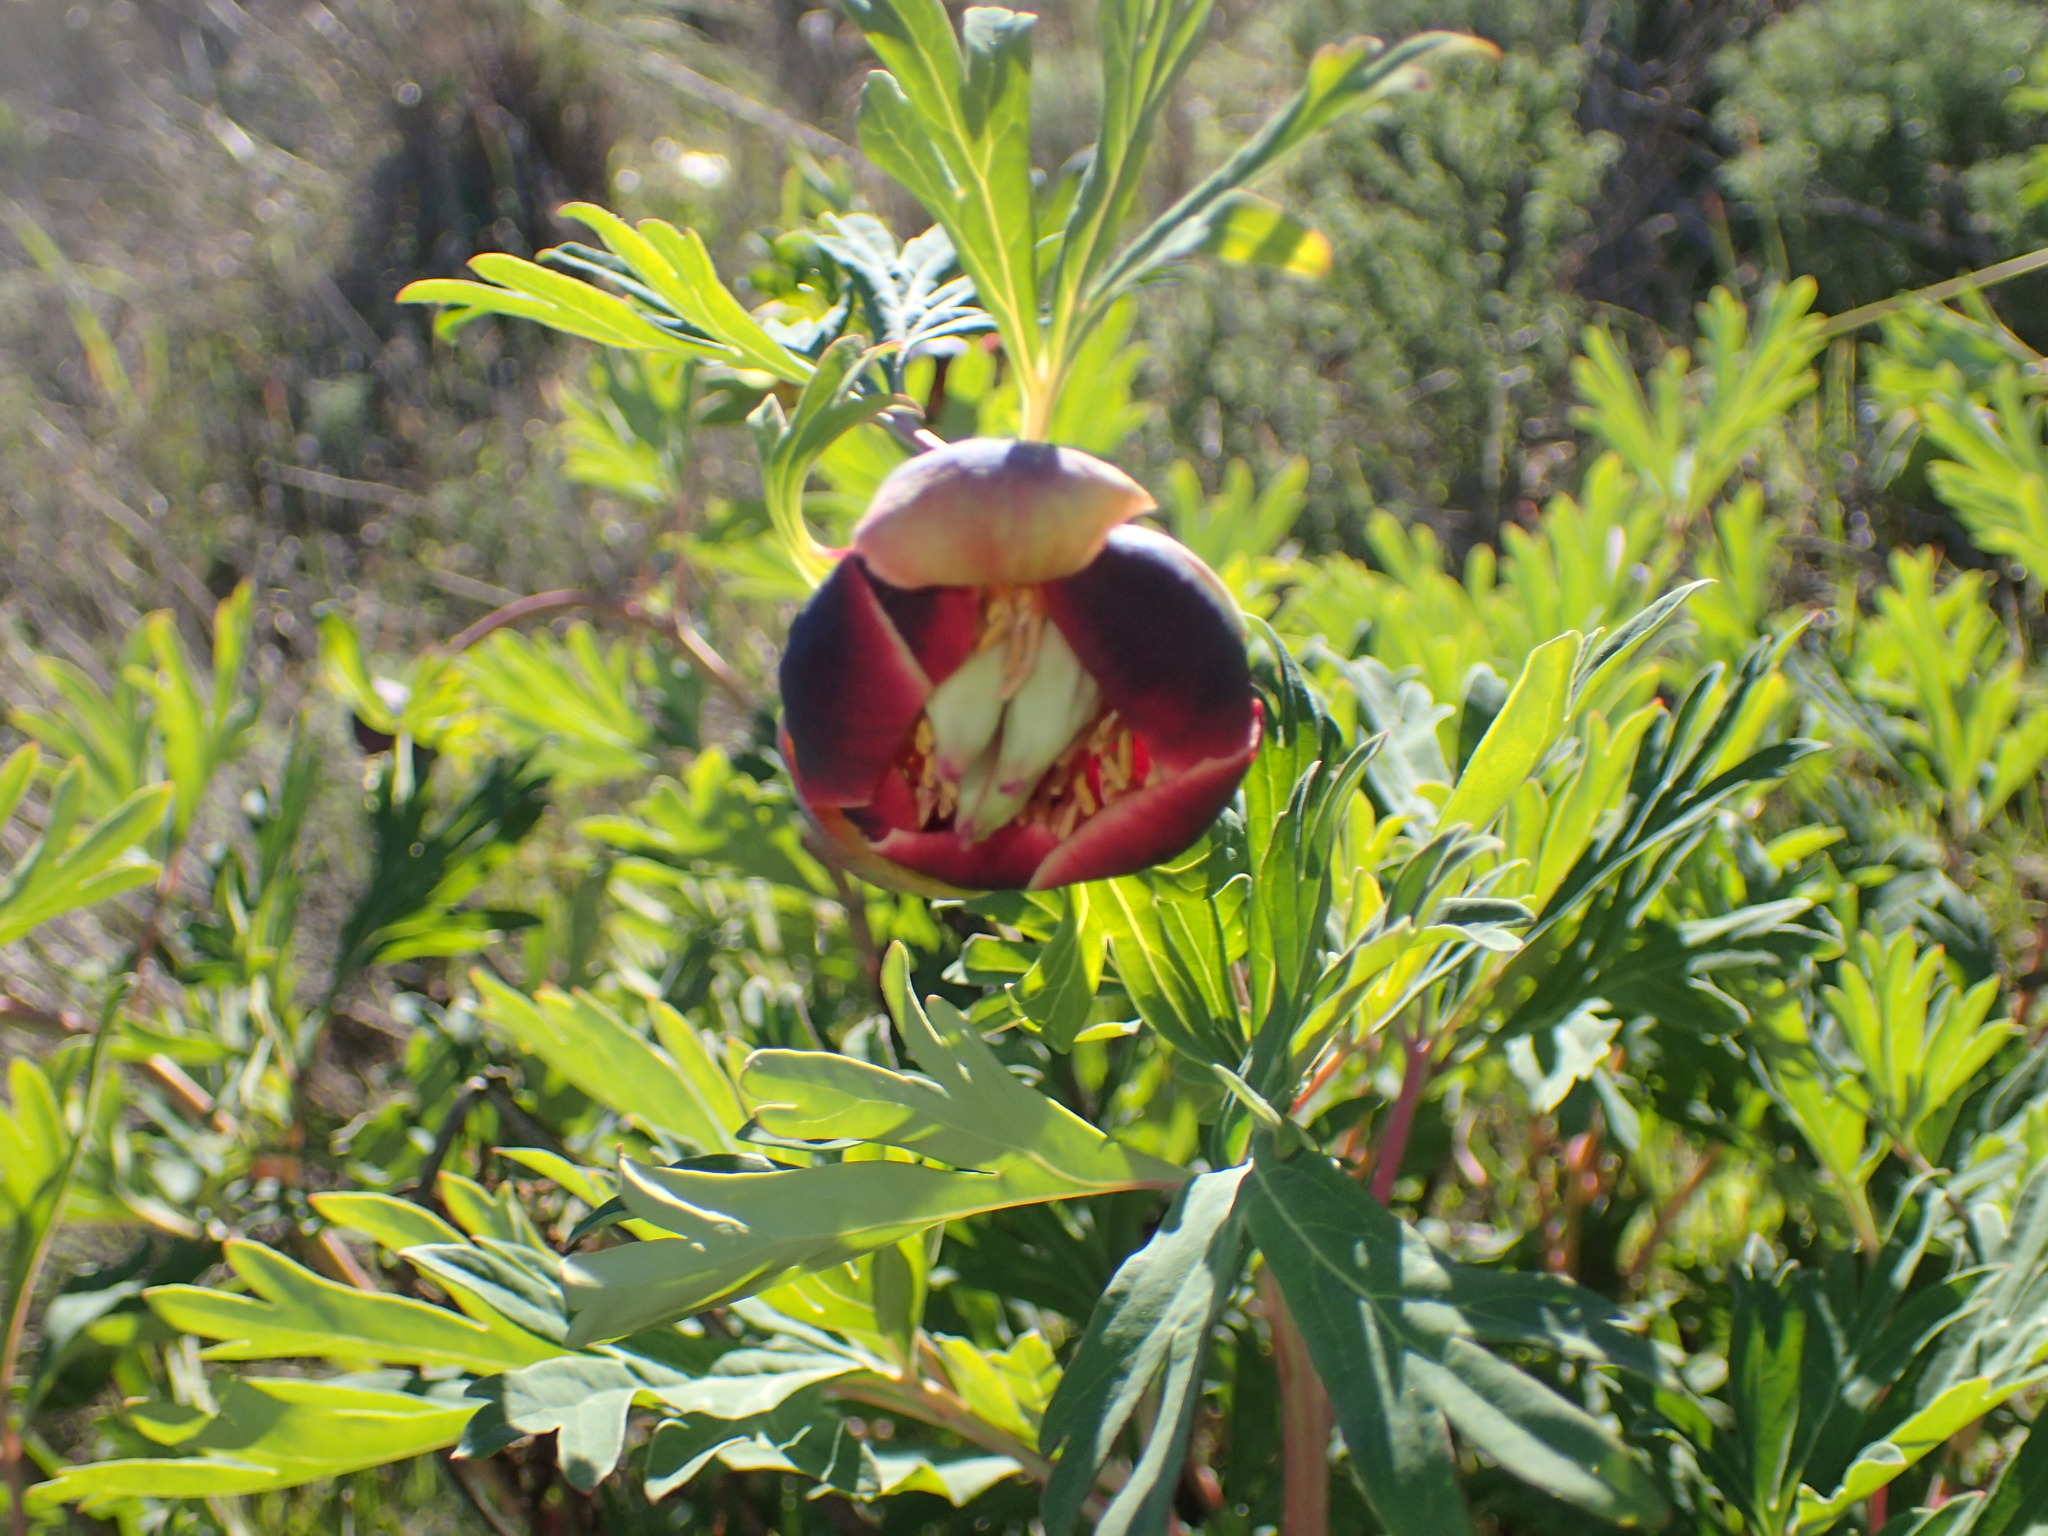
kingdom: Plantae
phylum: Tracheophyta
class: Magnoliopsida
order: Saxifragales
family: Paeoniaceae
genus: Paeonia
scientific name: Paeonia californica
